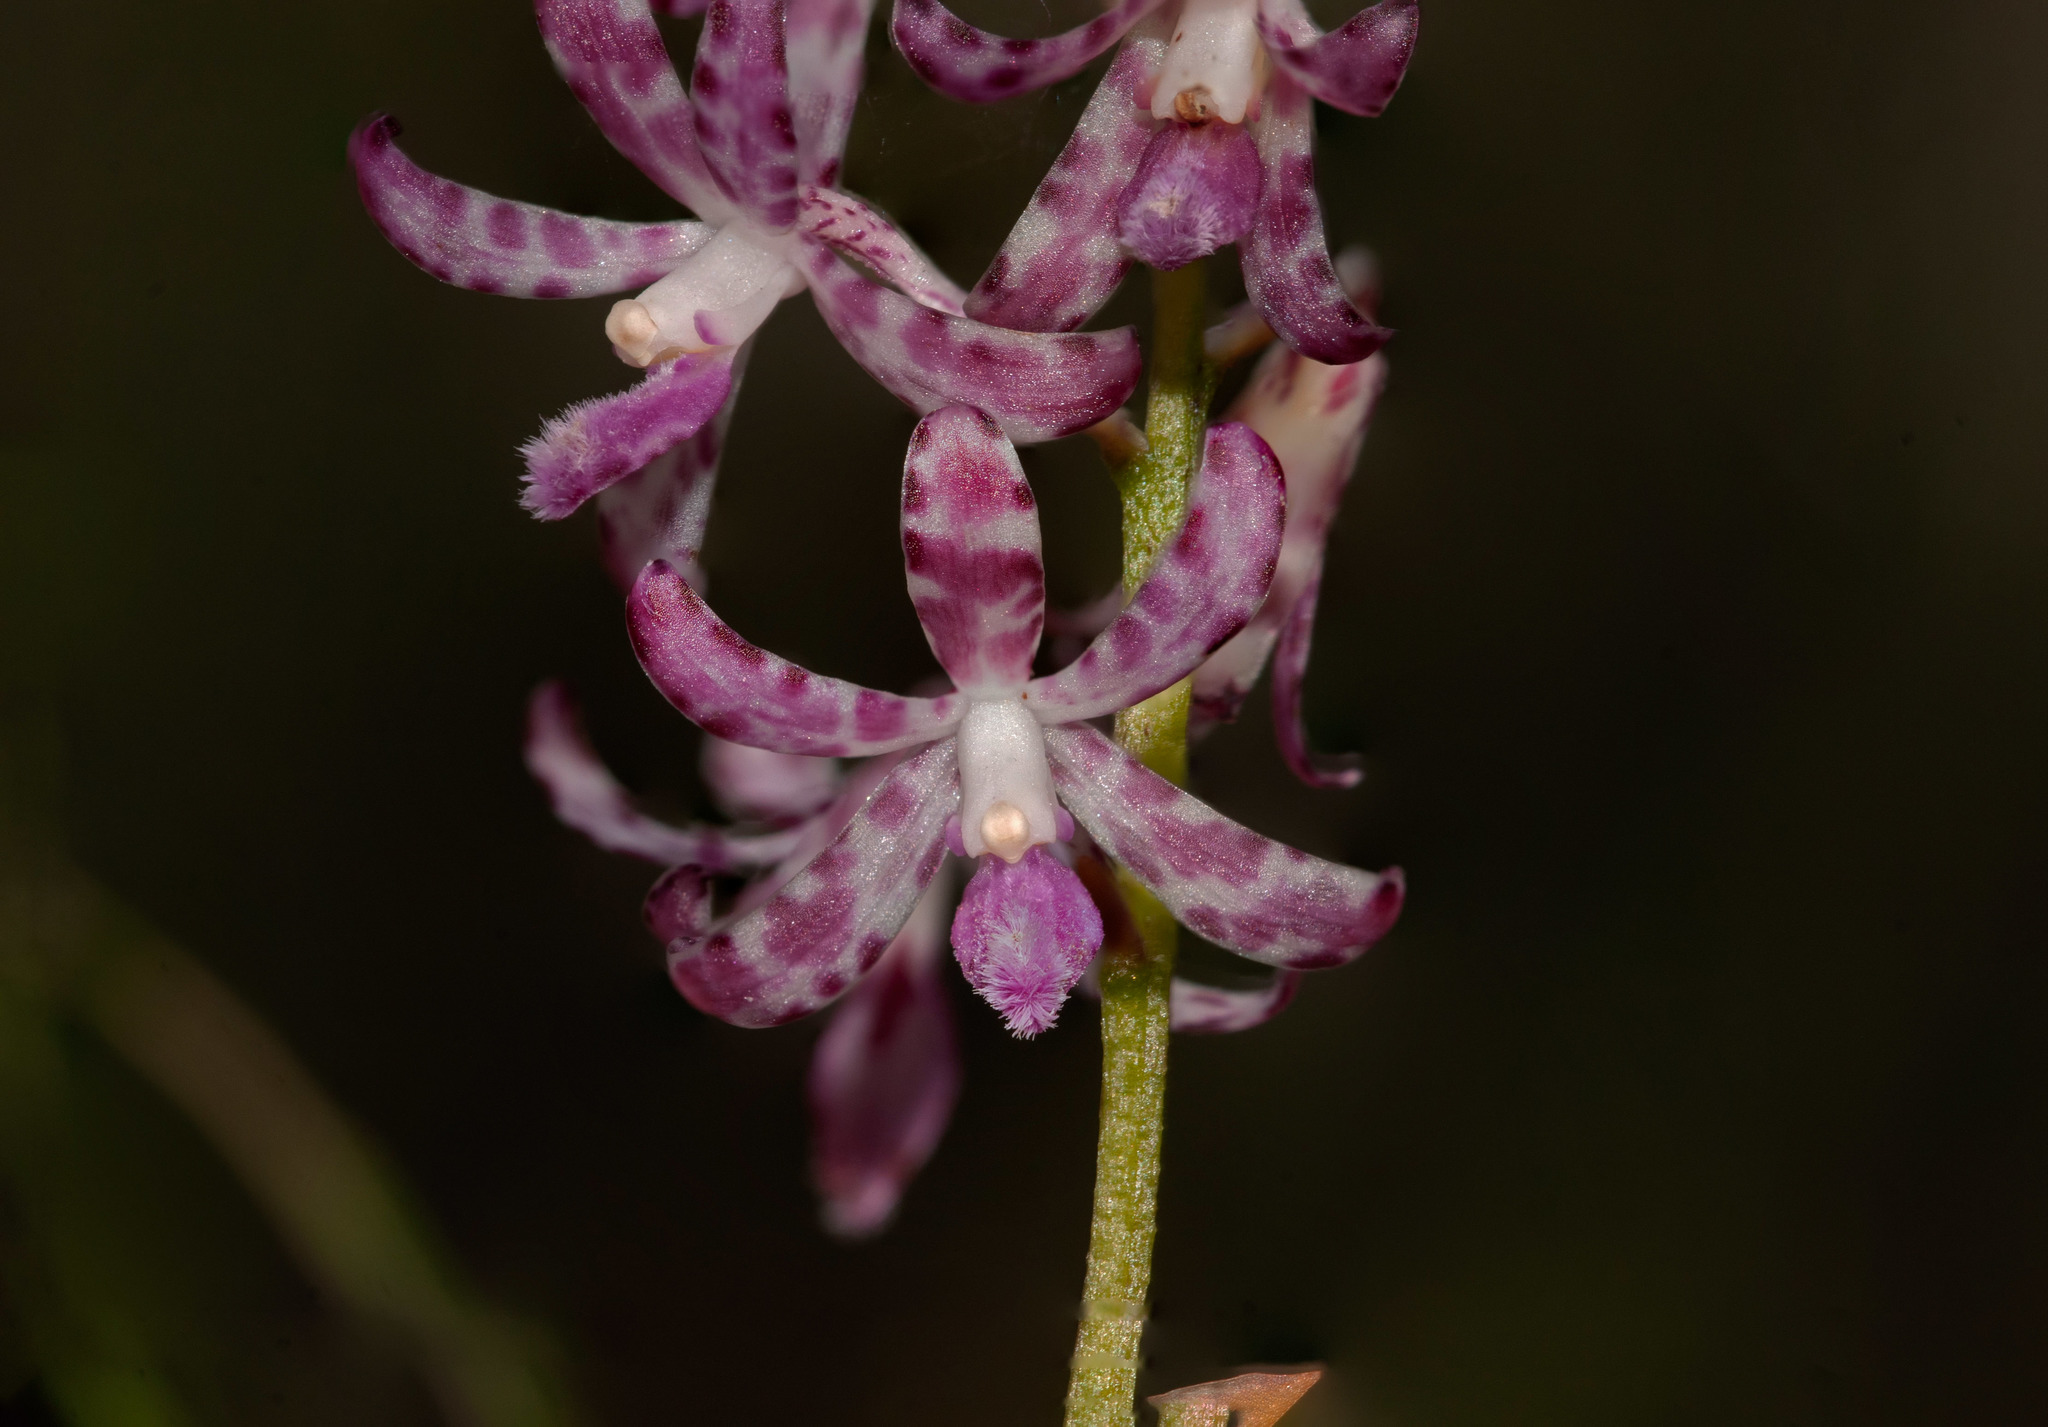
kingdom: Plantae
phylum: Tracheophyta
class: Liliopsida
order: Asparagales
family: Orchidaceae
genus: Dipodium
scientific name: Dipodium variegatum
